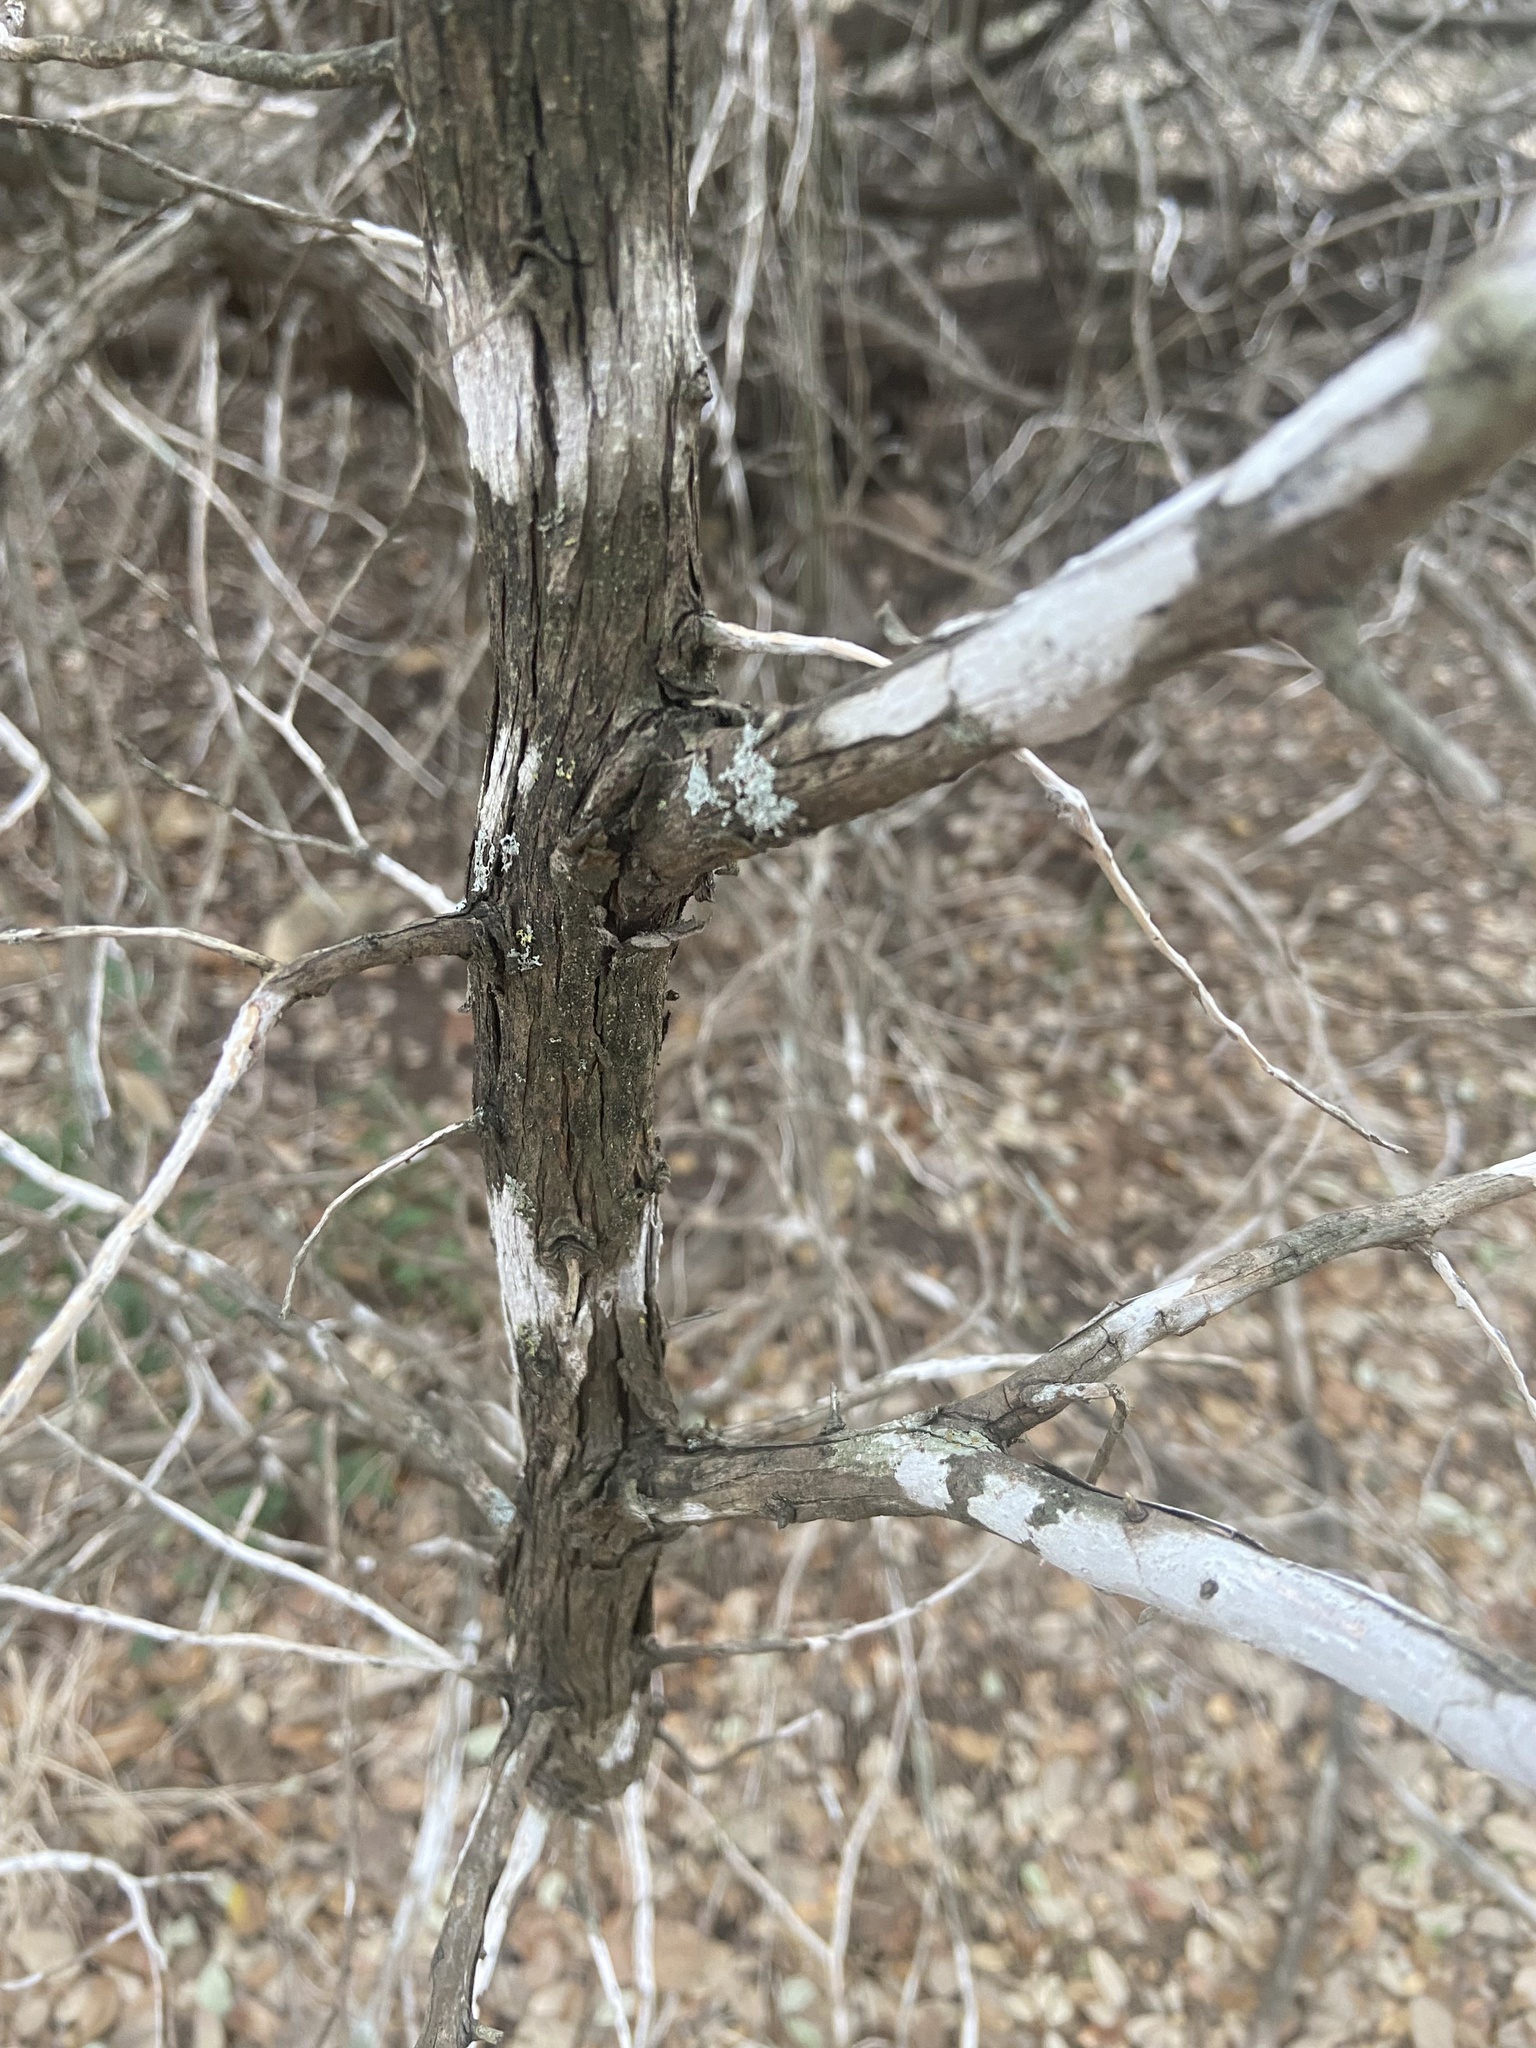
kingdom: Fungi
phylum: Ascomycota
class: Lecanoromycetes
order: Ostropales
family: Stictidaceae
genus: Robergea
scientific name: Robergea
